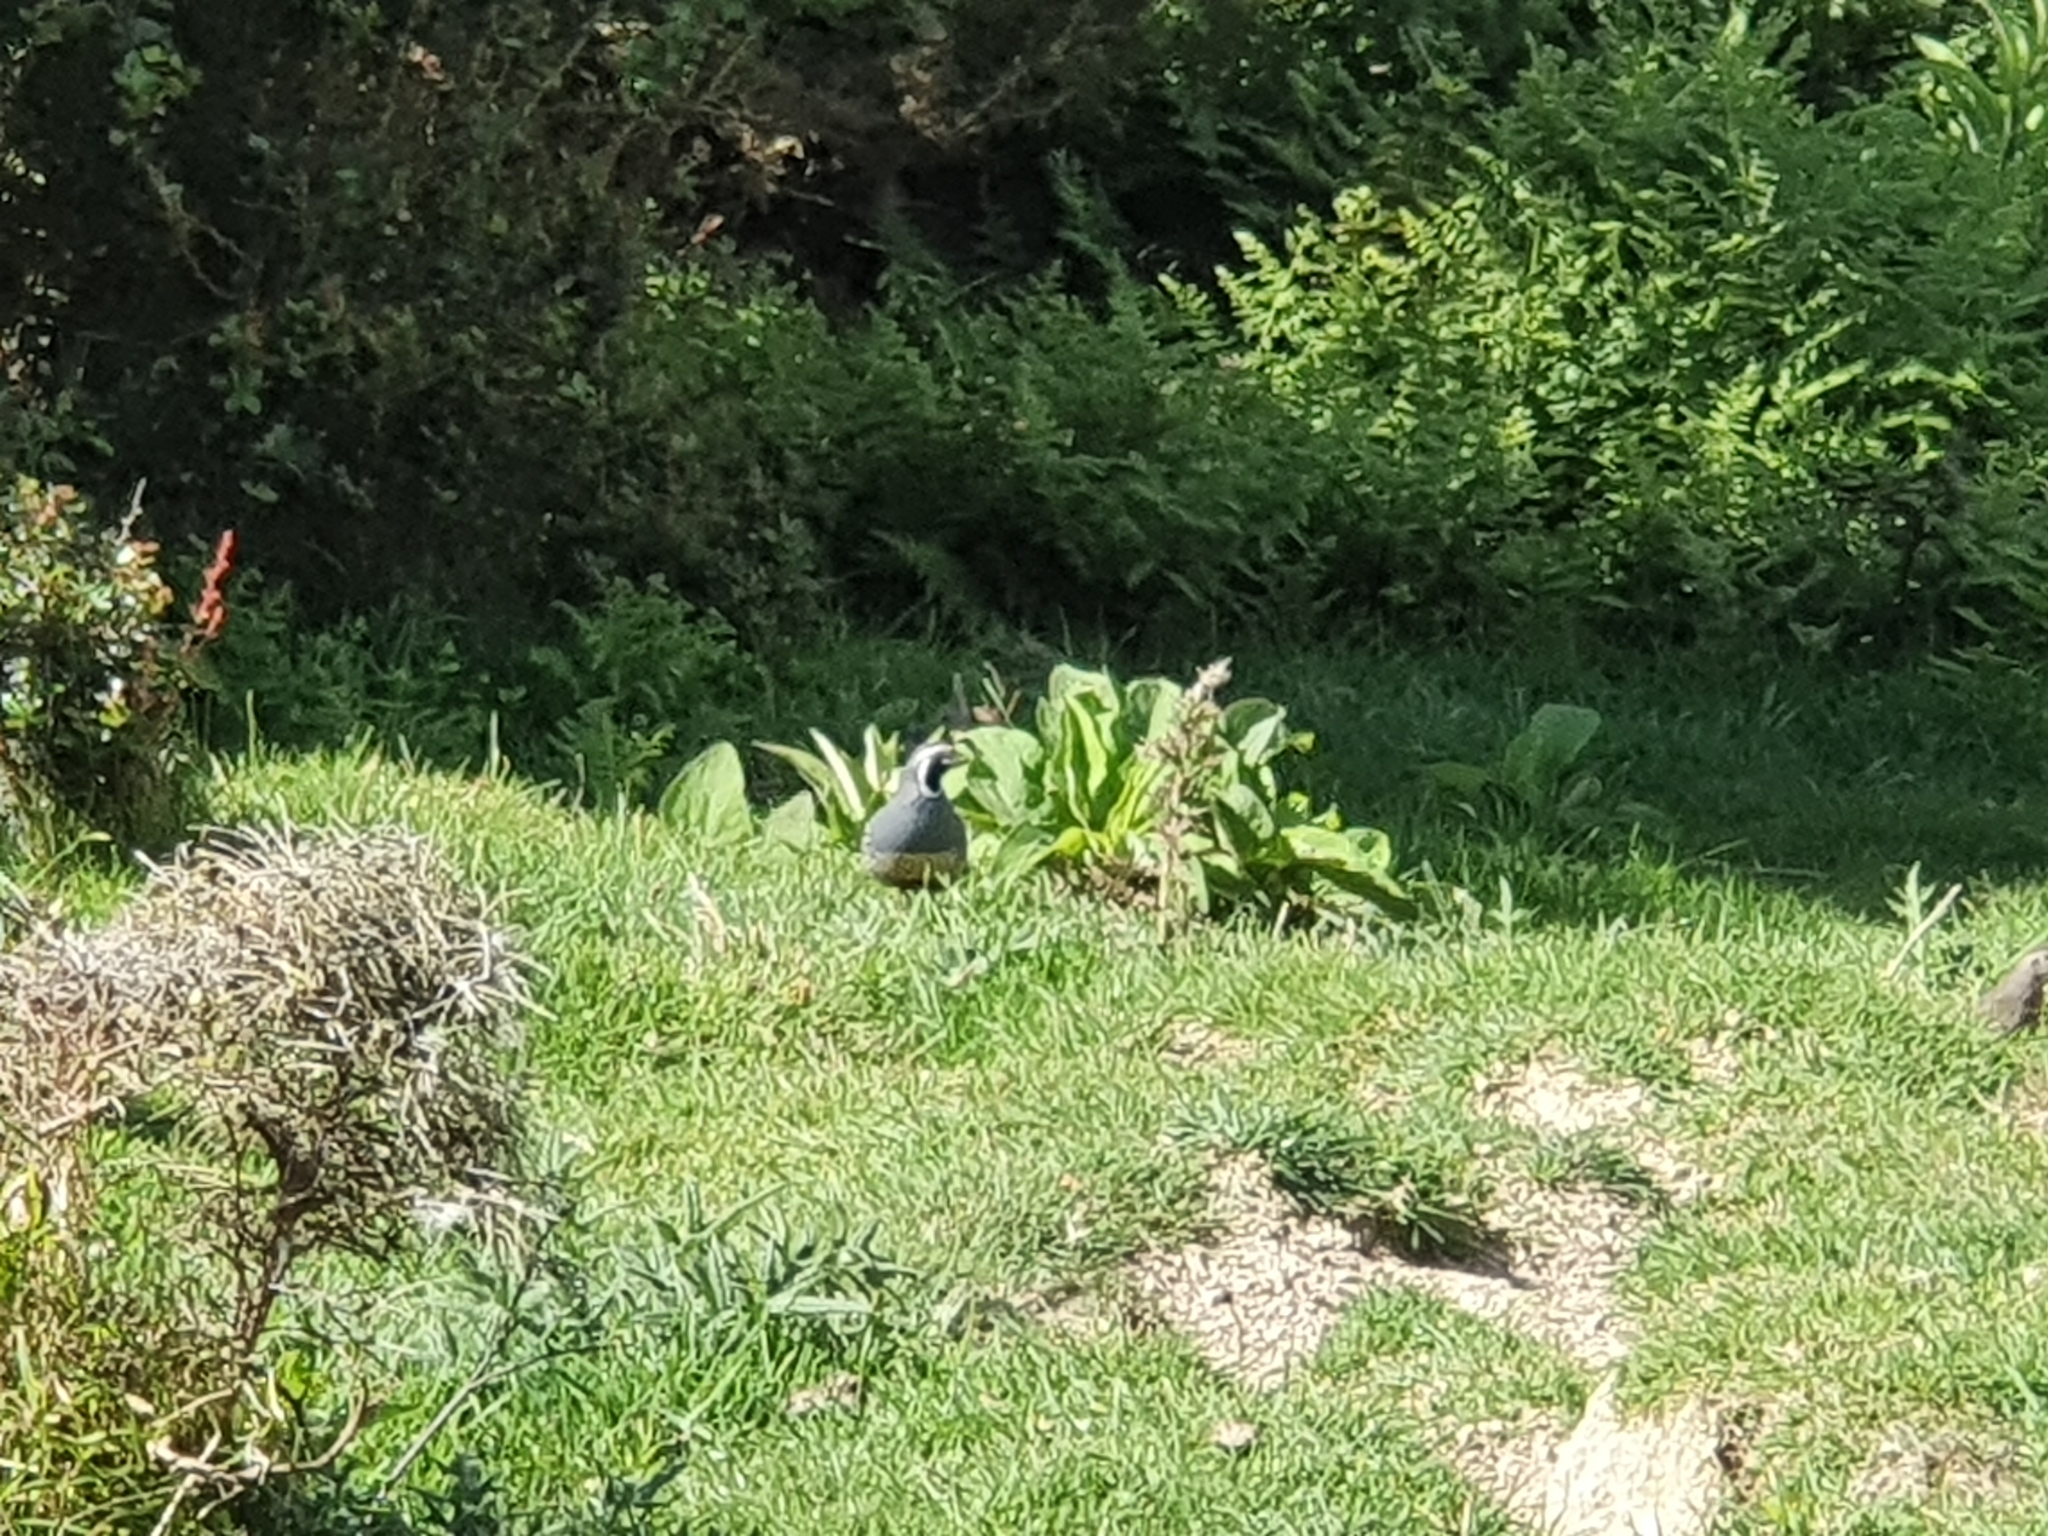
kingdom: Animalia
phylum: Chordata
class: Aves
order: Galliformes
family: Odontophoridae
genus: Callipepla
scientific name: Callipepla californica
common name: California quail
